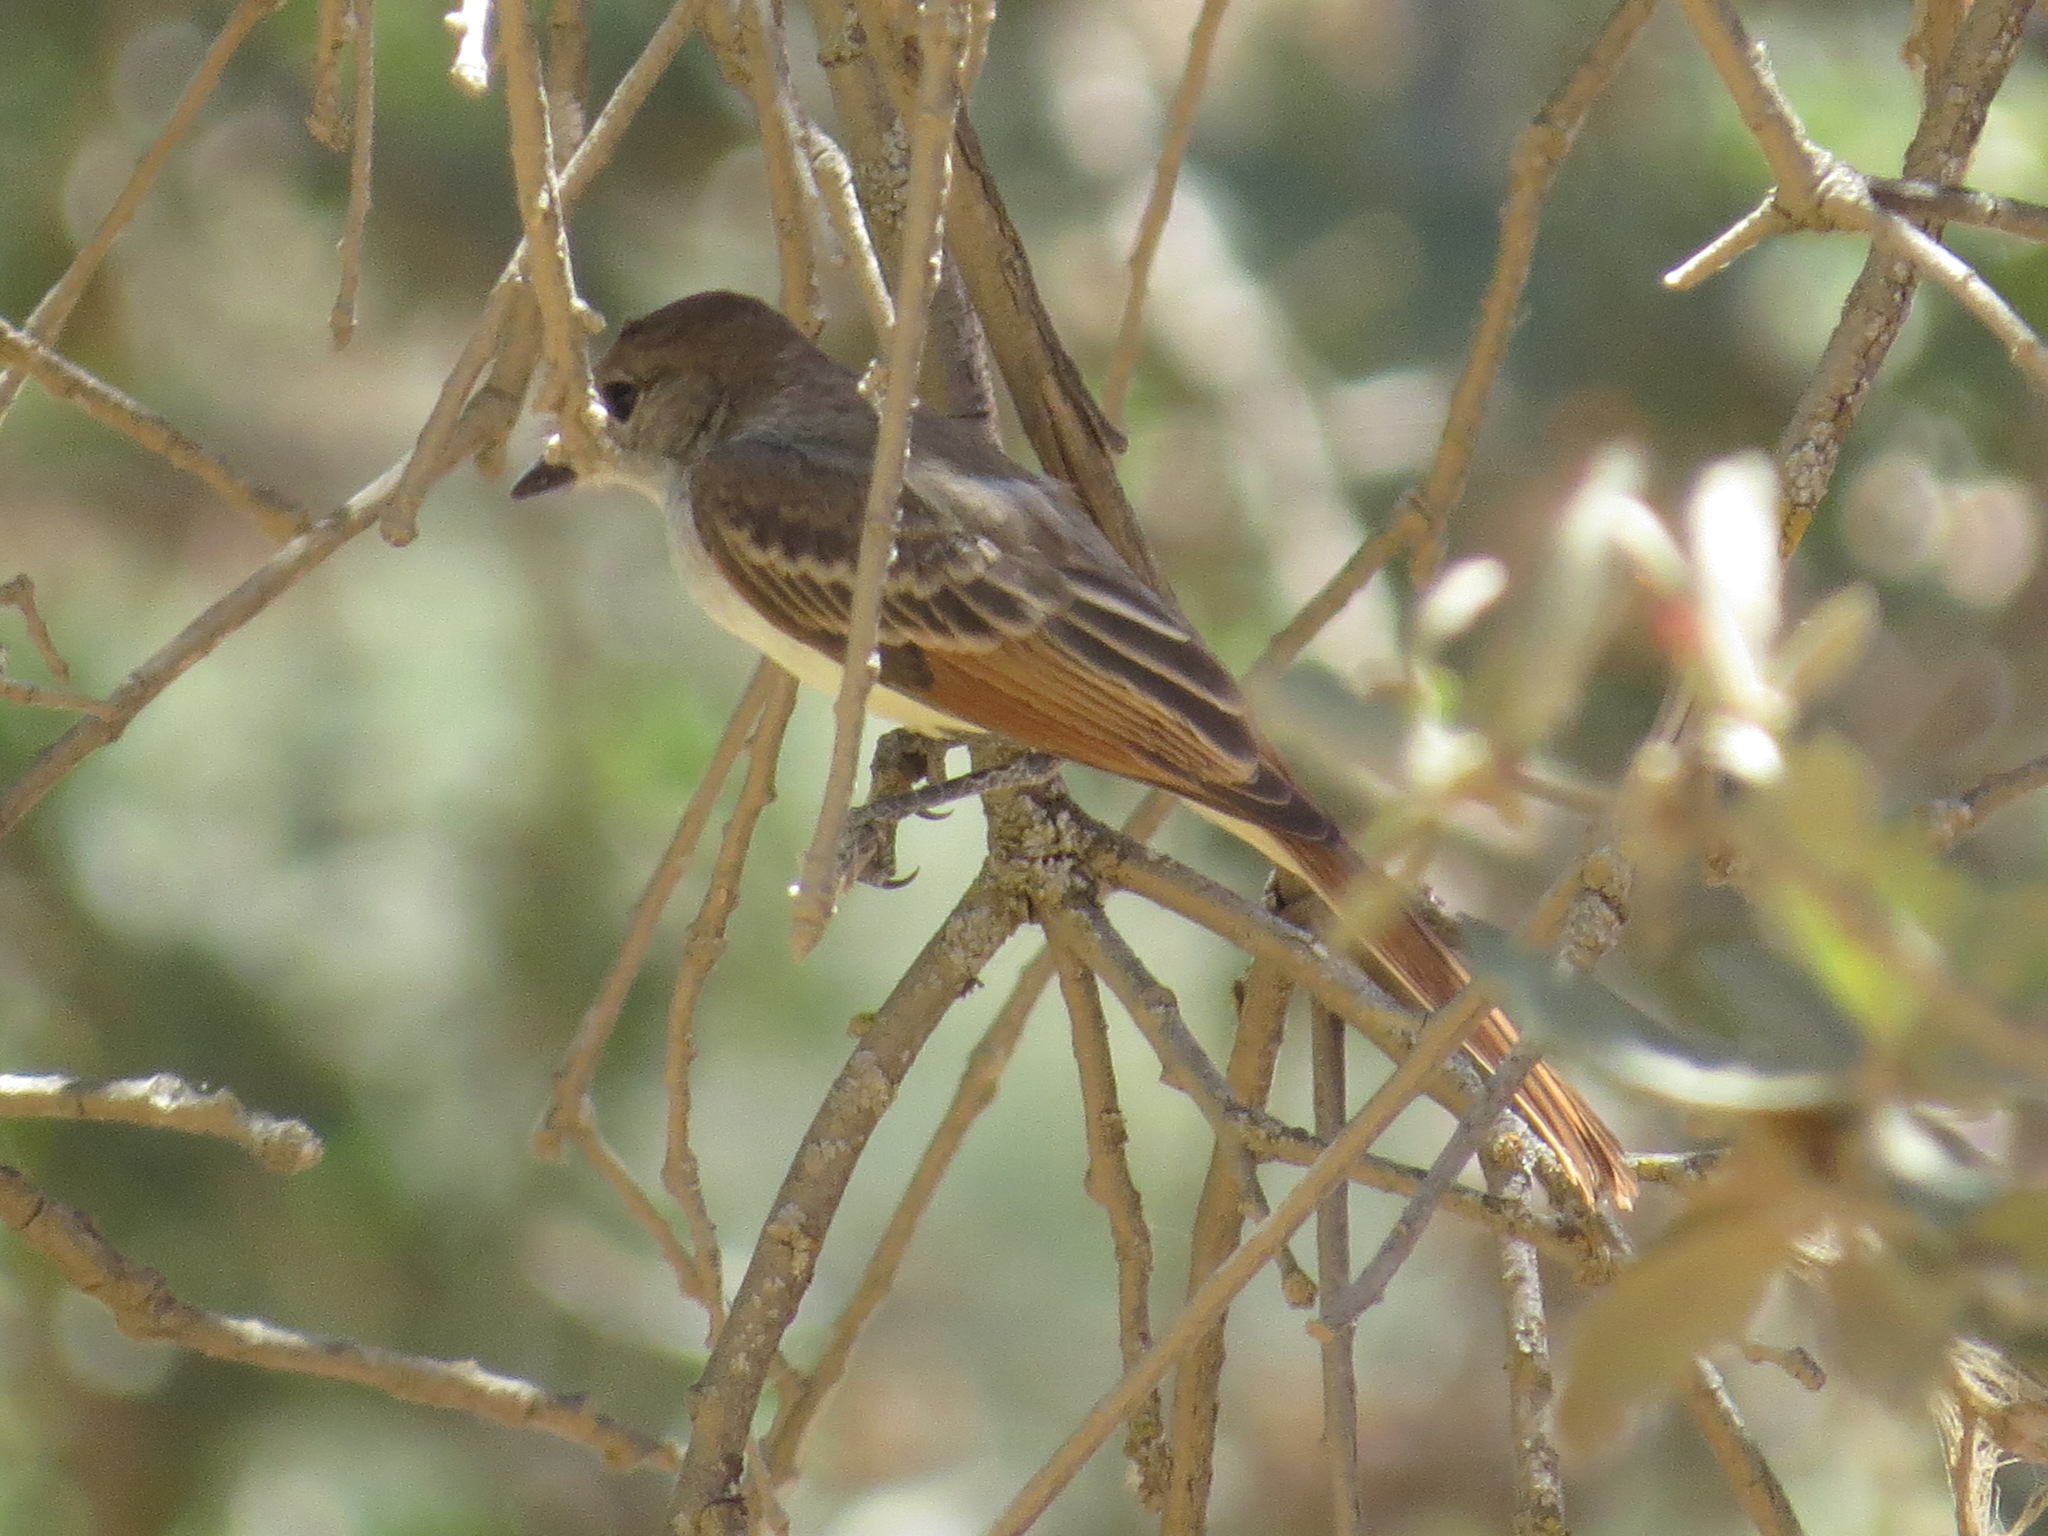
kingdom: Animalia
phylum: Chordata
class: Aves
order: Passeriformes
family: Tyrannidae
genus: Myiarchus
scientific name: Myiarchus cinerascens
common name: Ash-throated flycatcher
